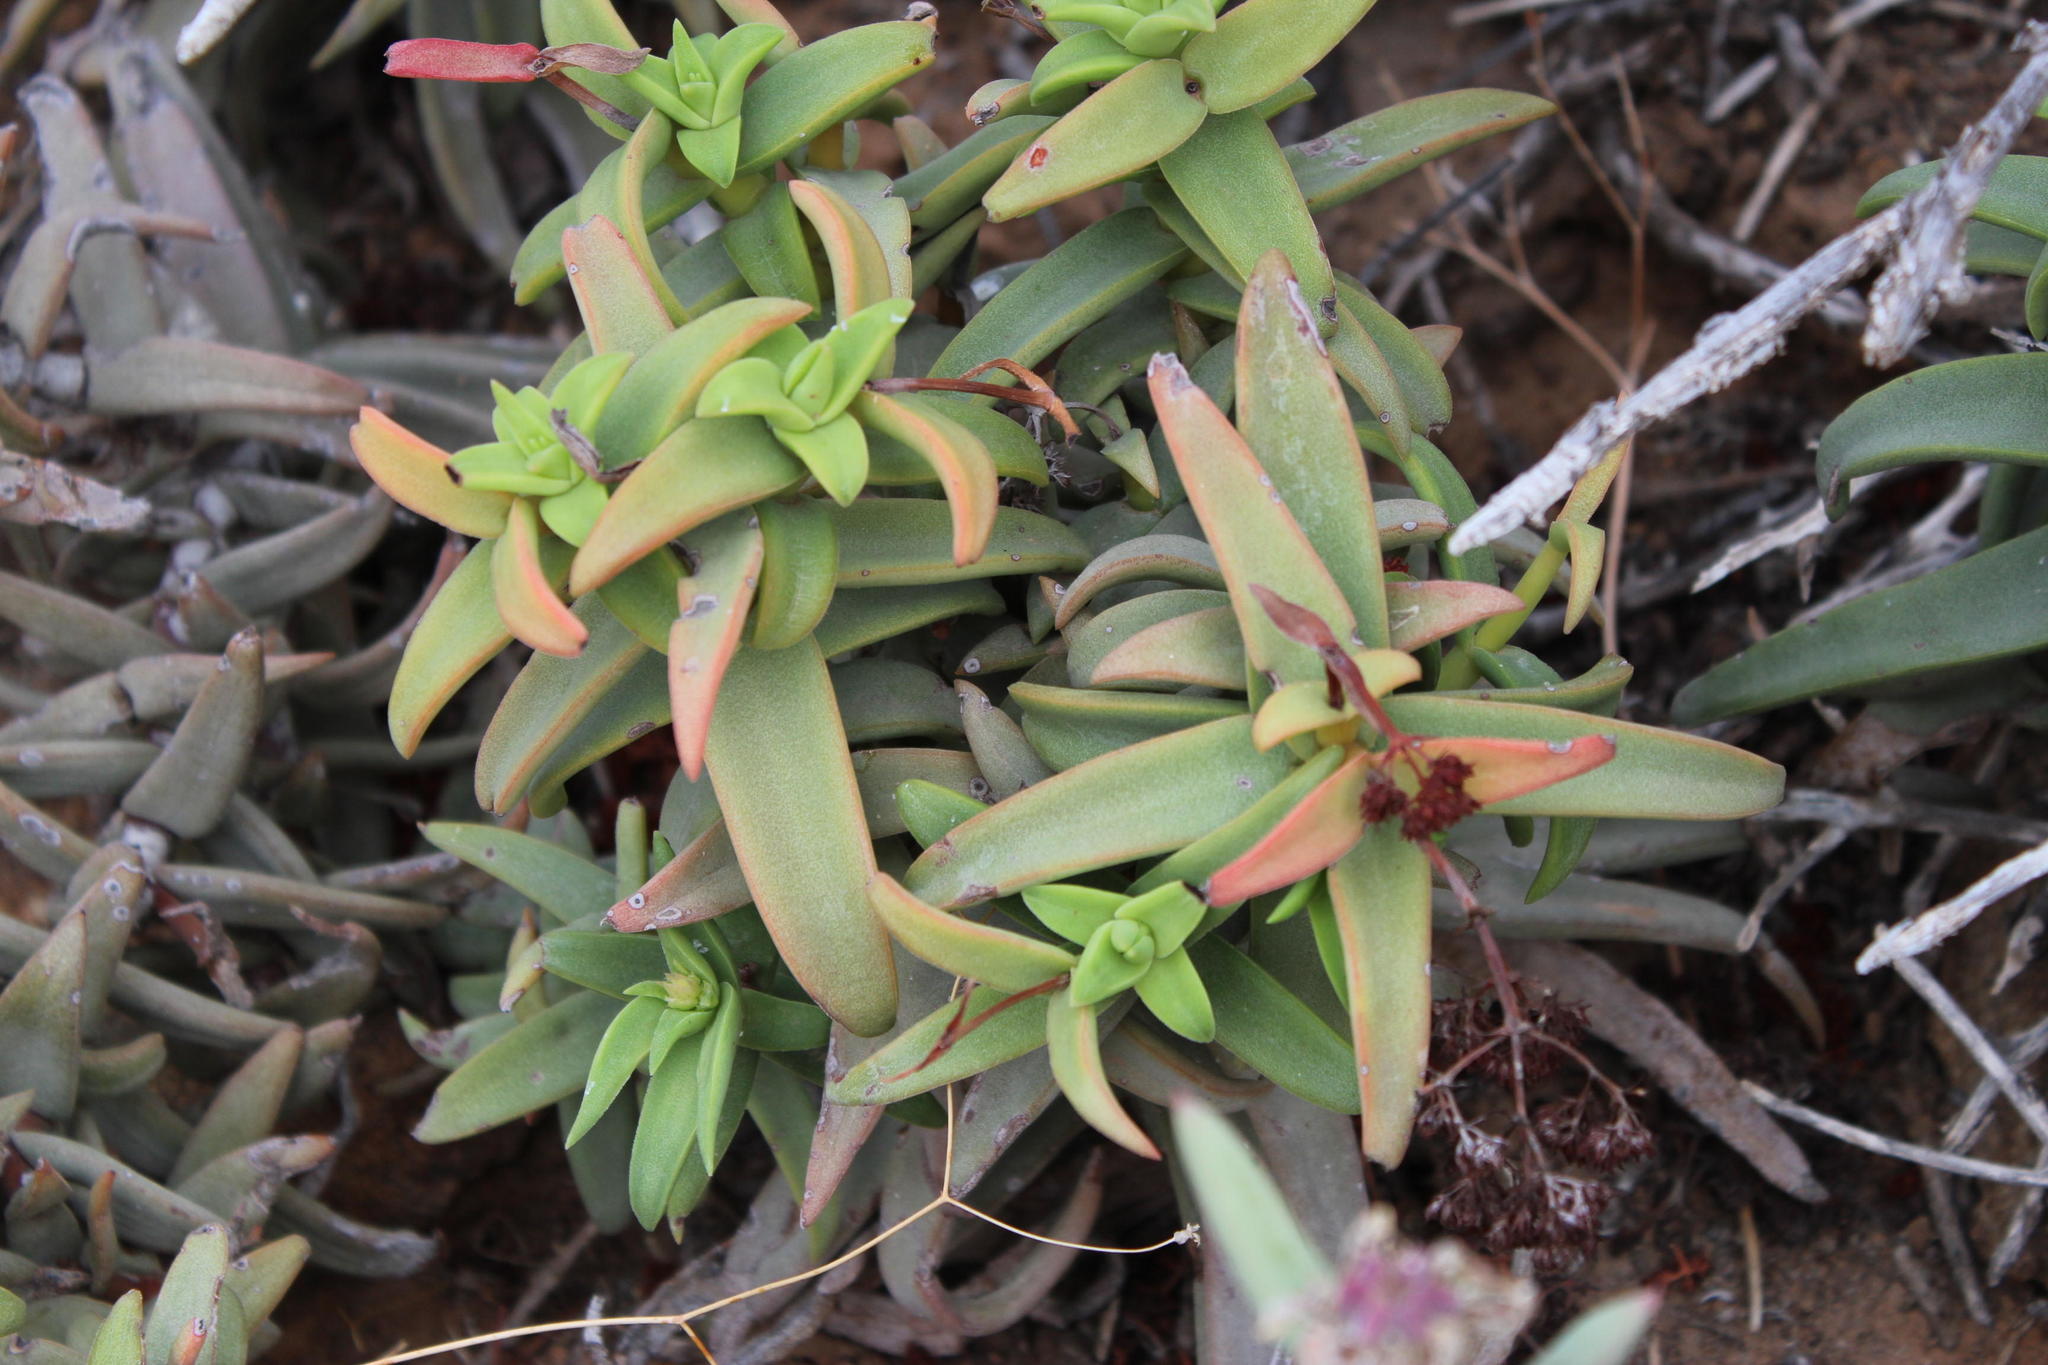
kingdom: Plantae
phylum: Tracheophyta
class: Magnoliopsida
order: Saxifragales
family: Crassulaceae
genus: Crassula
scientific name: Crassula fusca
